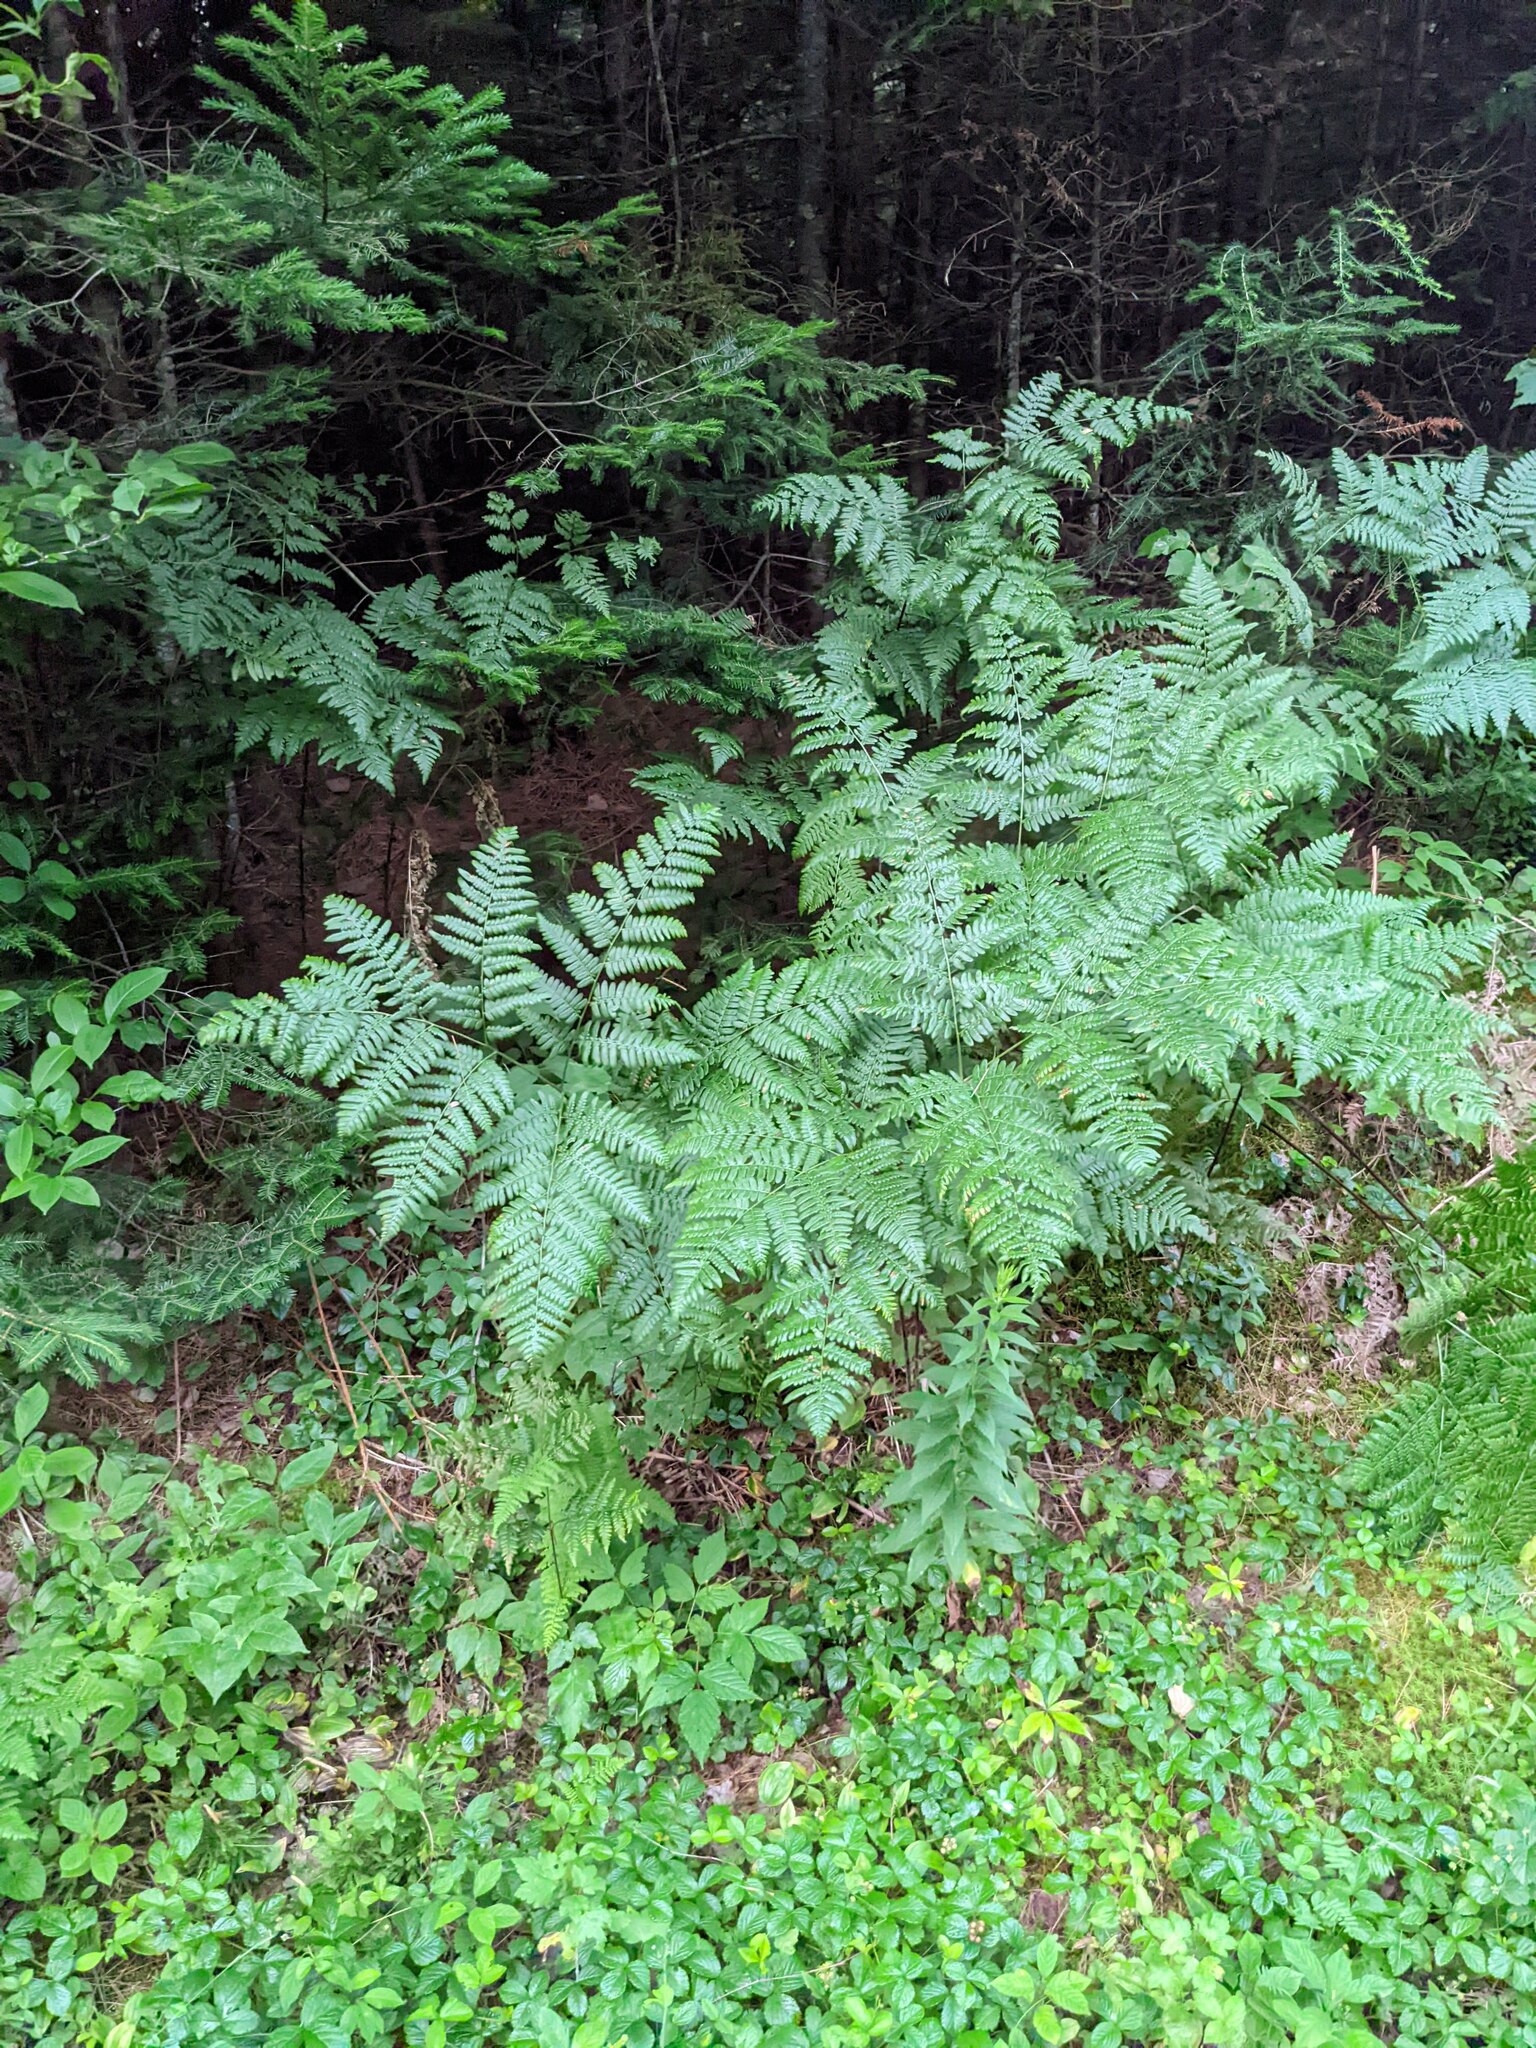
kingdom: Plantae
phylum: Tracheophyta
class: Polypodiopsida
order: Polypodiales
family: Dennstaedtiaceae
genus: Pteridium
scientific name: Pteridium aquilinum
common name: Bracken
